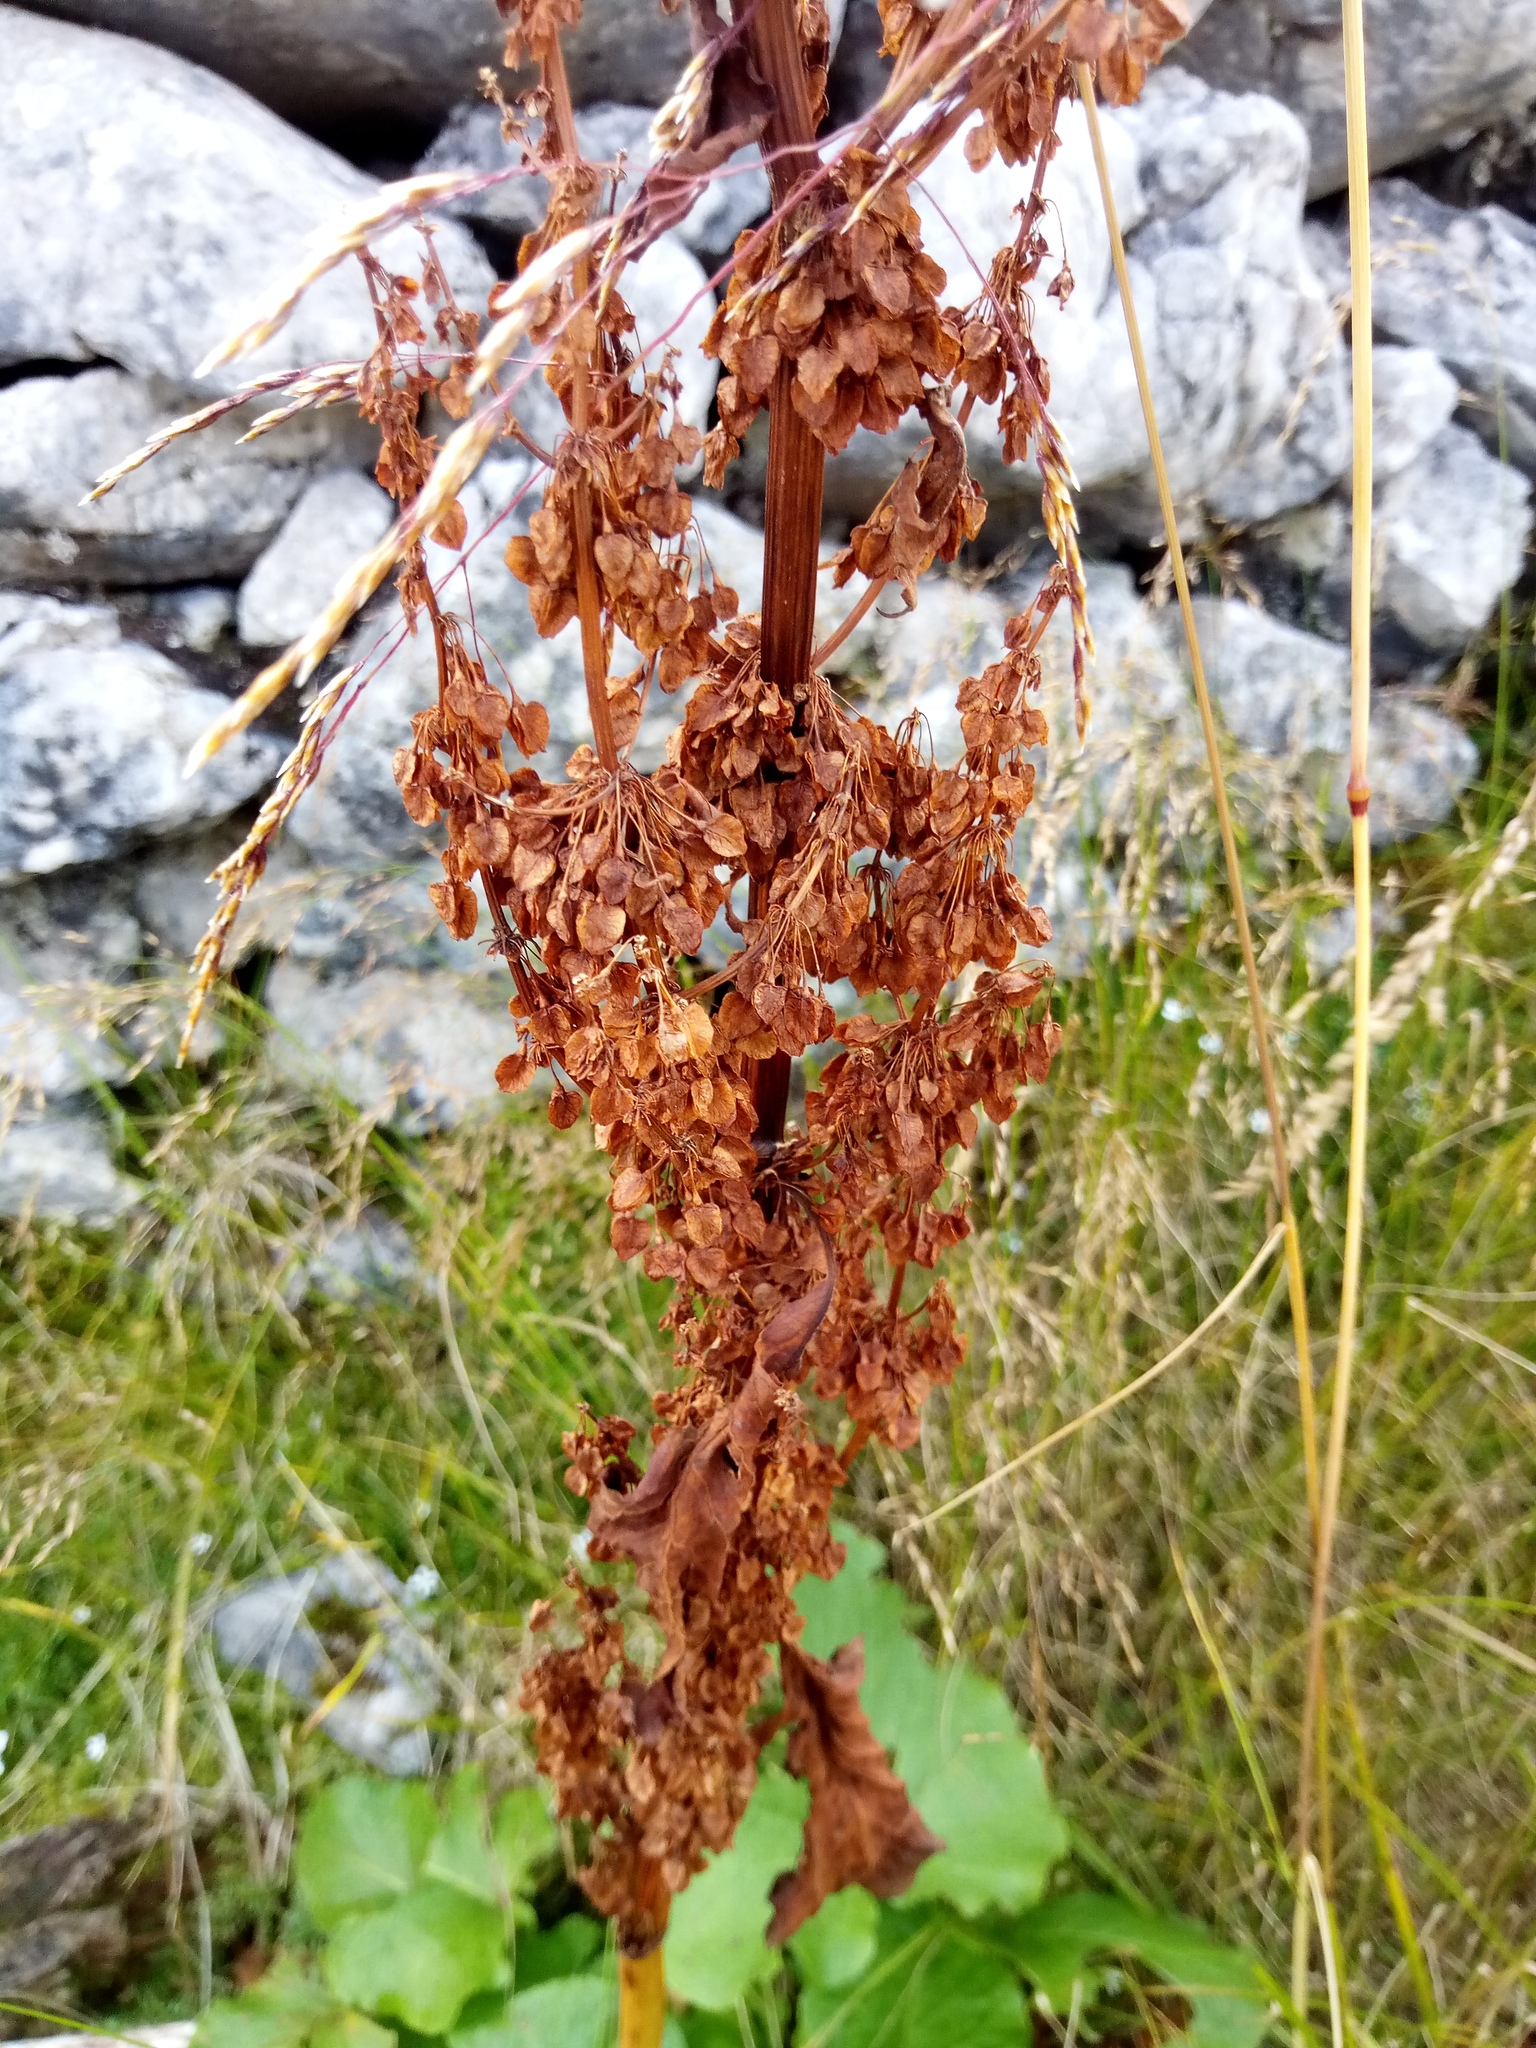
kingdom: Plantae
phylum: Tracheophyta
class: Magnoliopsida
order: Caryophyllales
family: Polygonaceae
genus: Rumex
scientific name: Rumex alpinus
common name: Alpine dock
